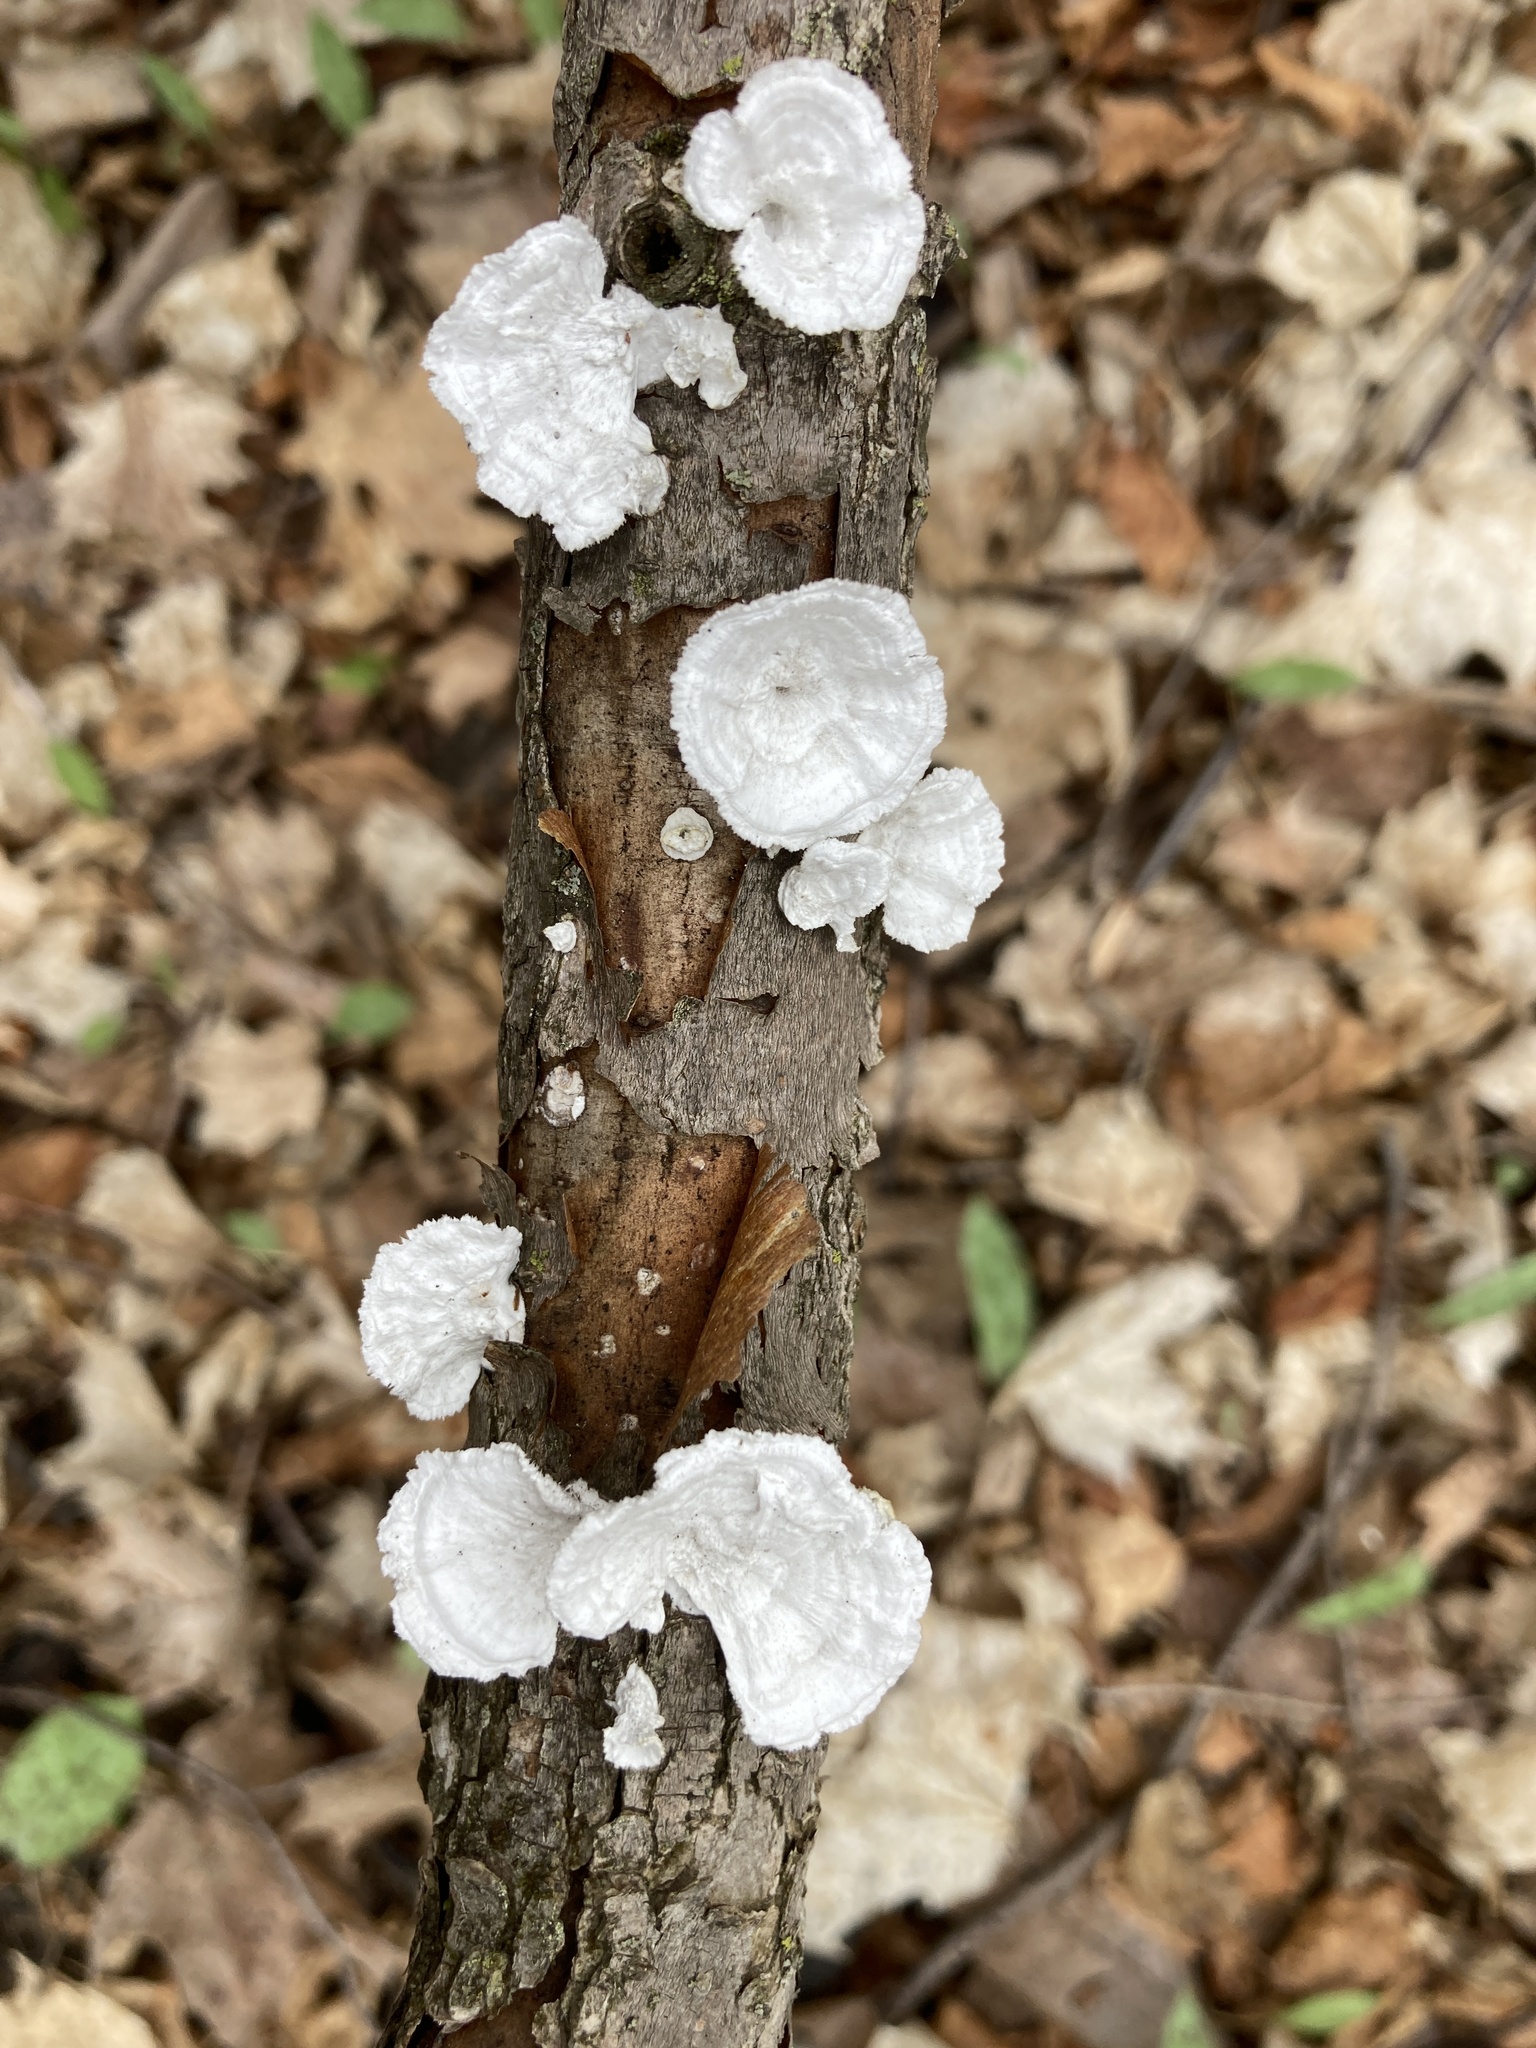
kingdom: Fungi
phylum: Basidiomycota
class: Agaricomycetes
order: Polyporales
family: Polyporaceae
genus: Poronidulus
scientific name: Poronidulus conchifer
